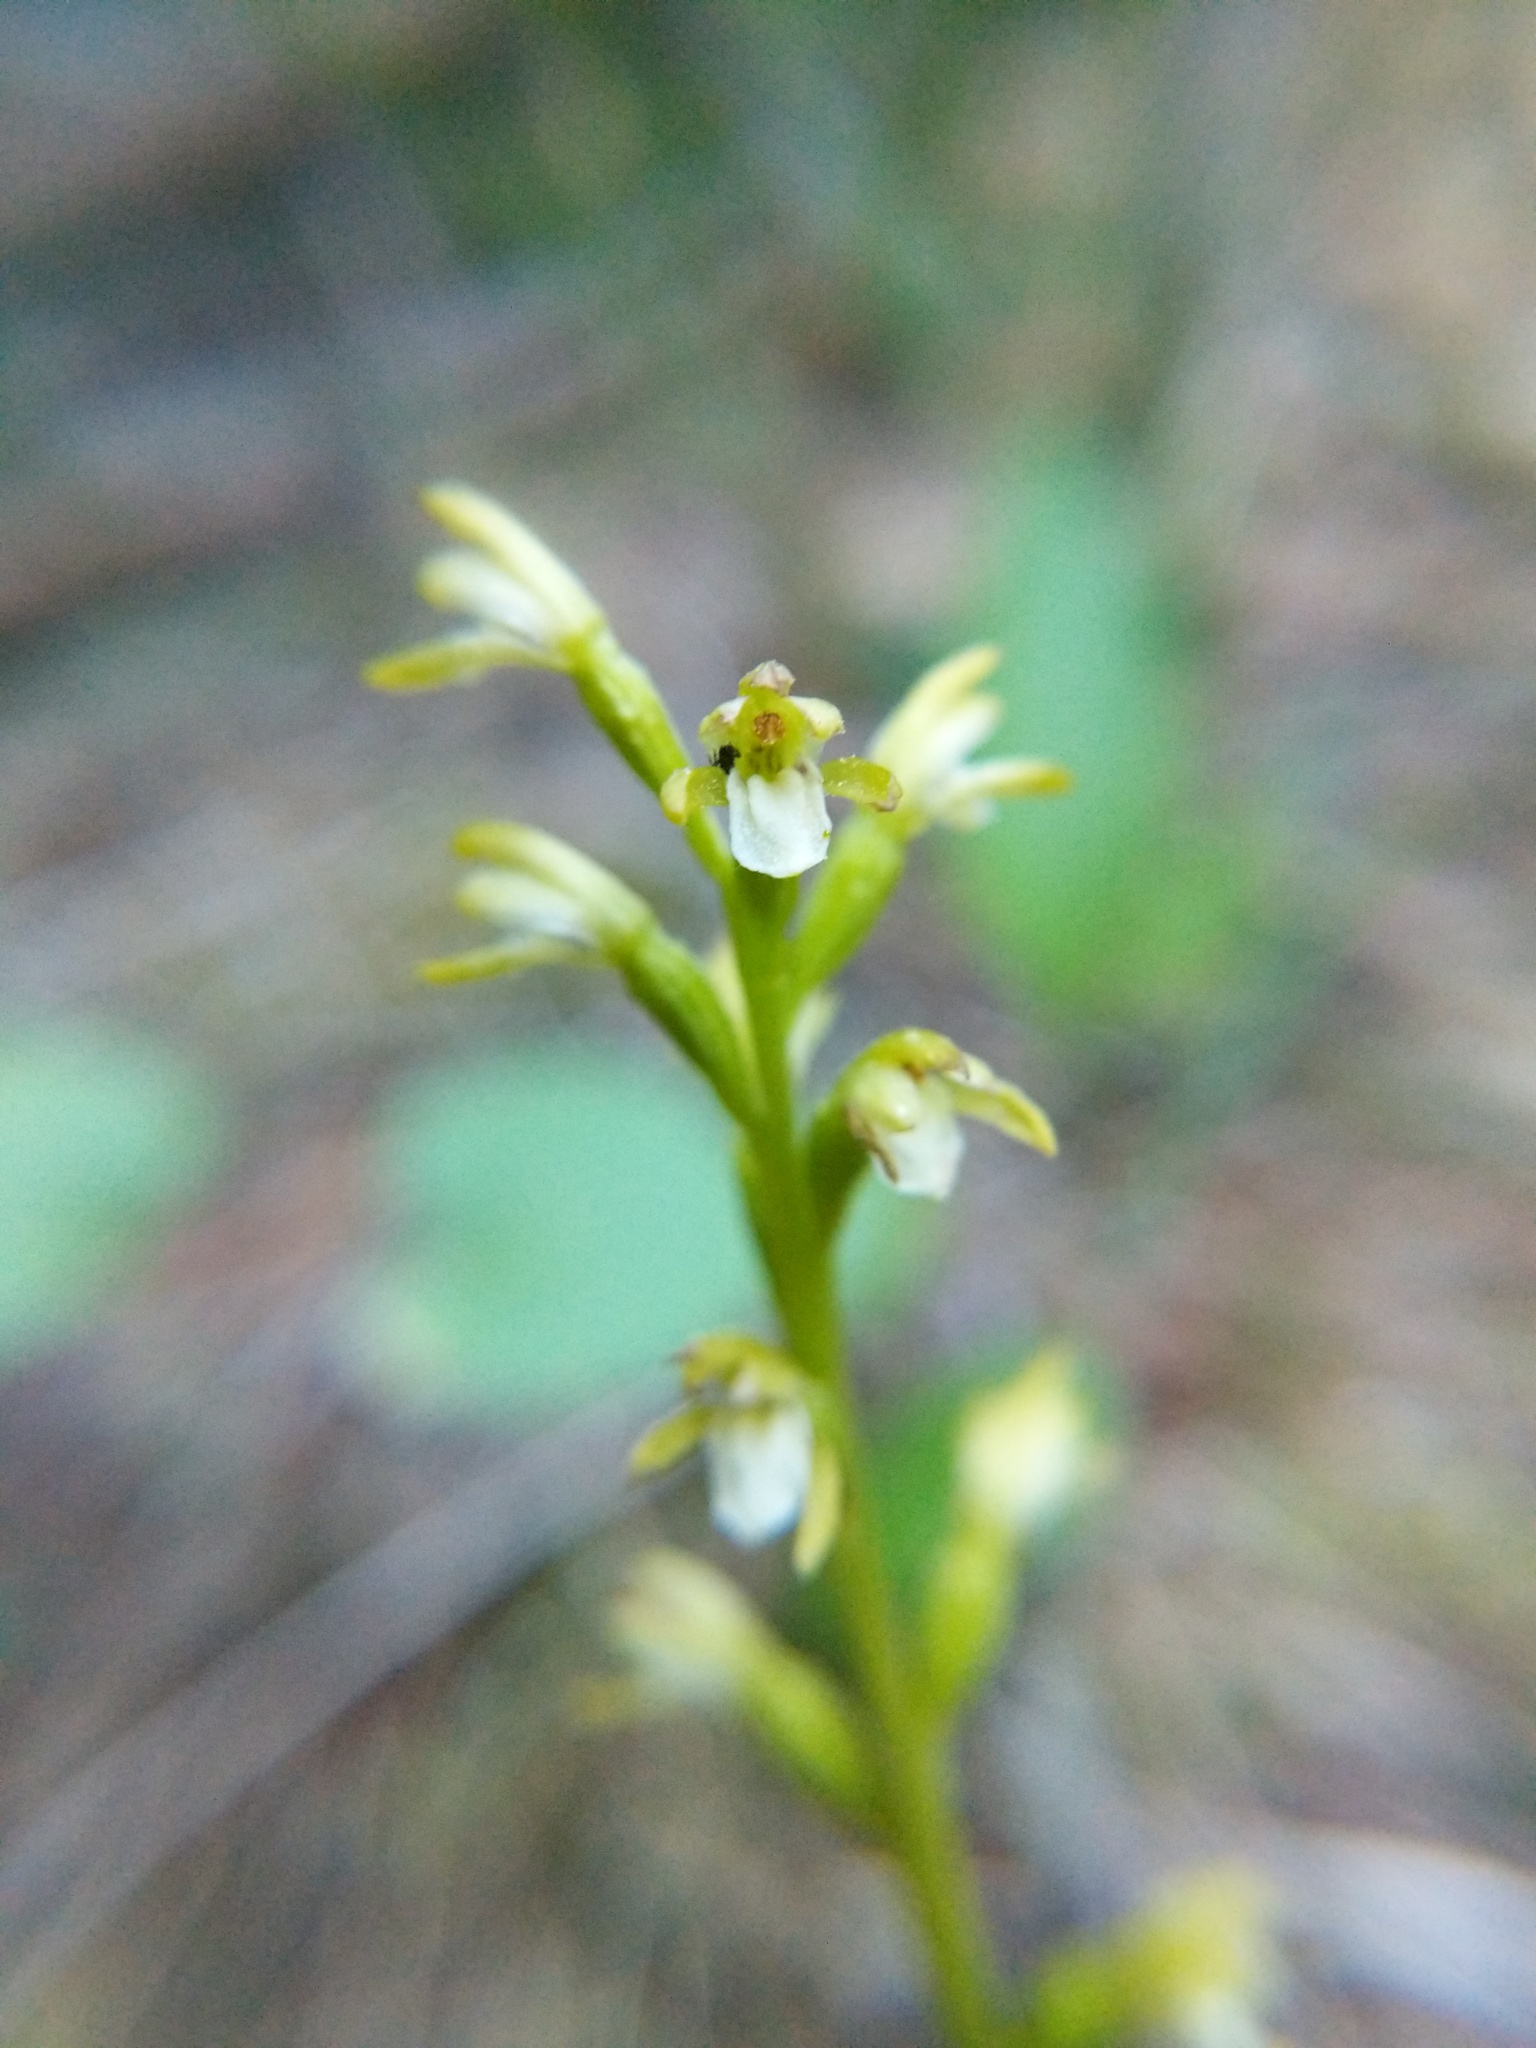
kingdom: Plantae
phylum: Tracheophyta
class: Liliopsida
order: Asparagales
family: Orchidaceae
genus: Corallorhiza
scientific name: Corallorhiza trifida
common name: Yellow coralroot
